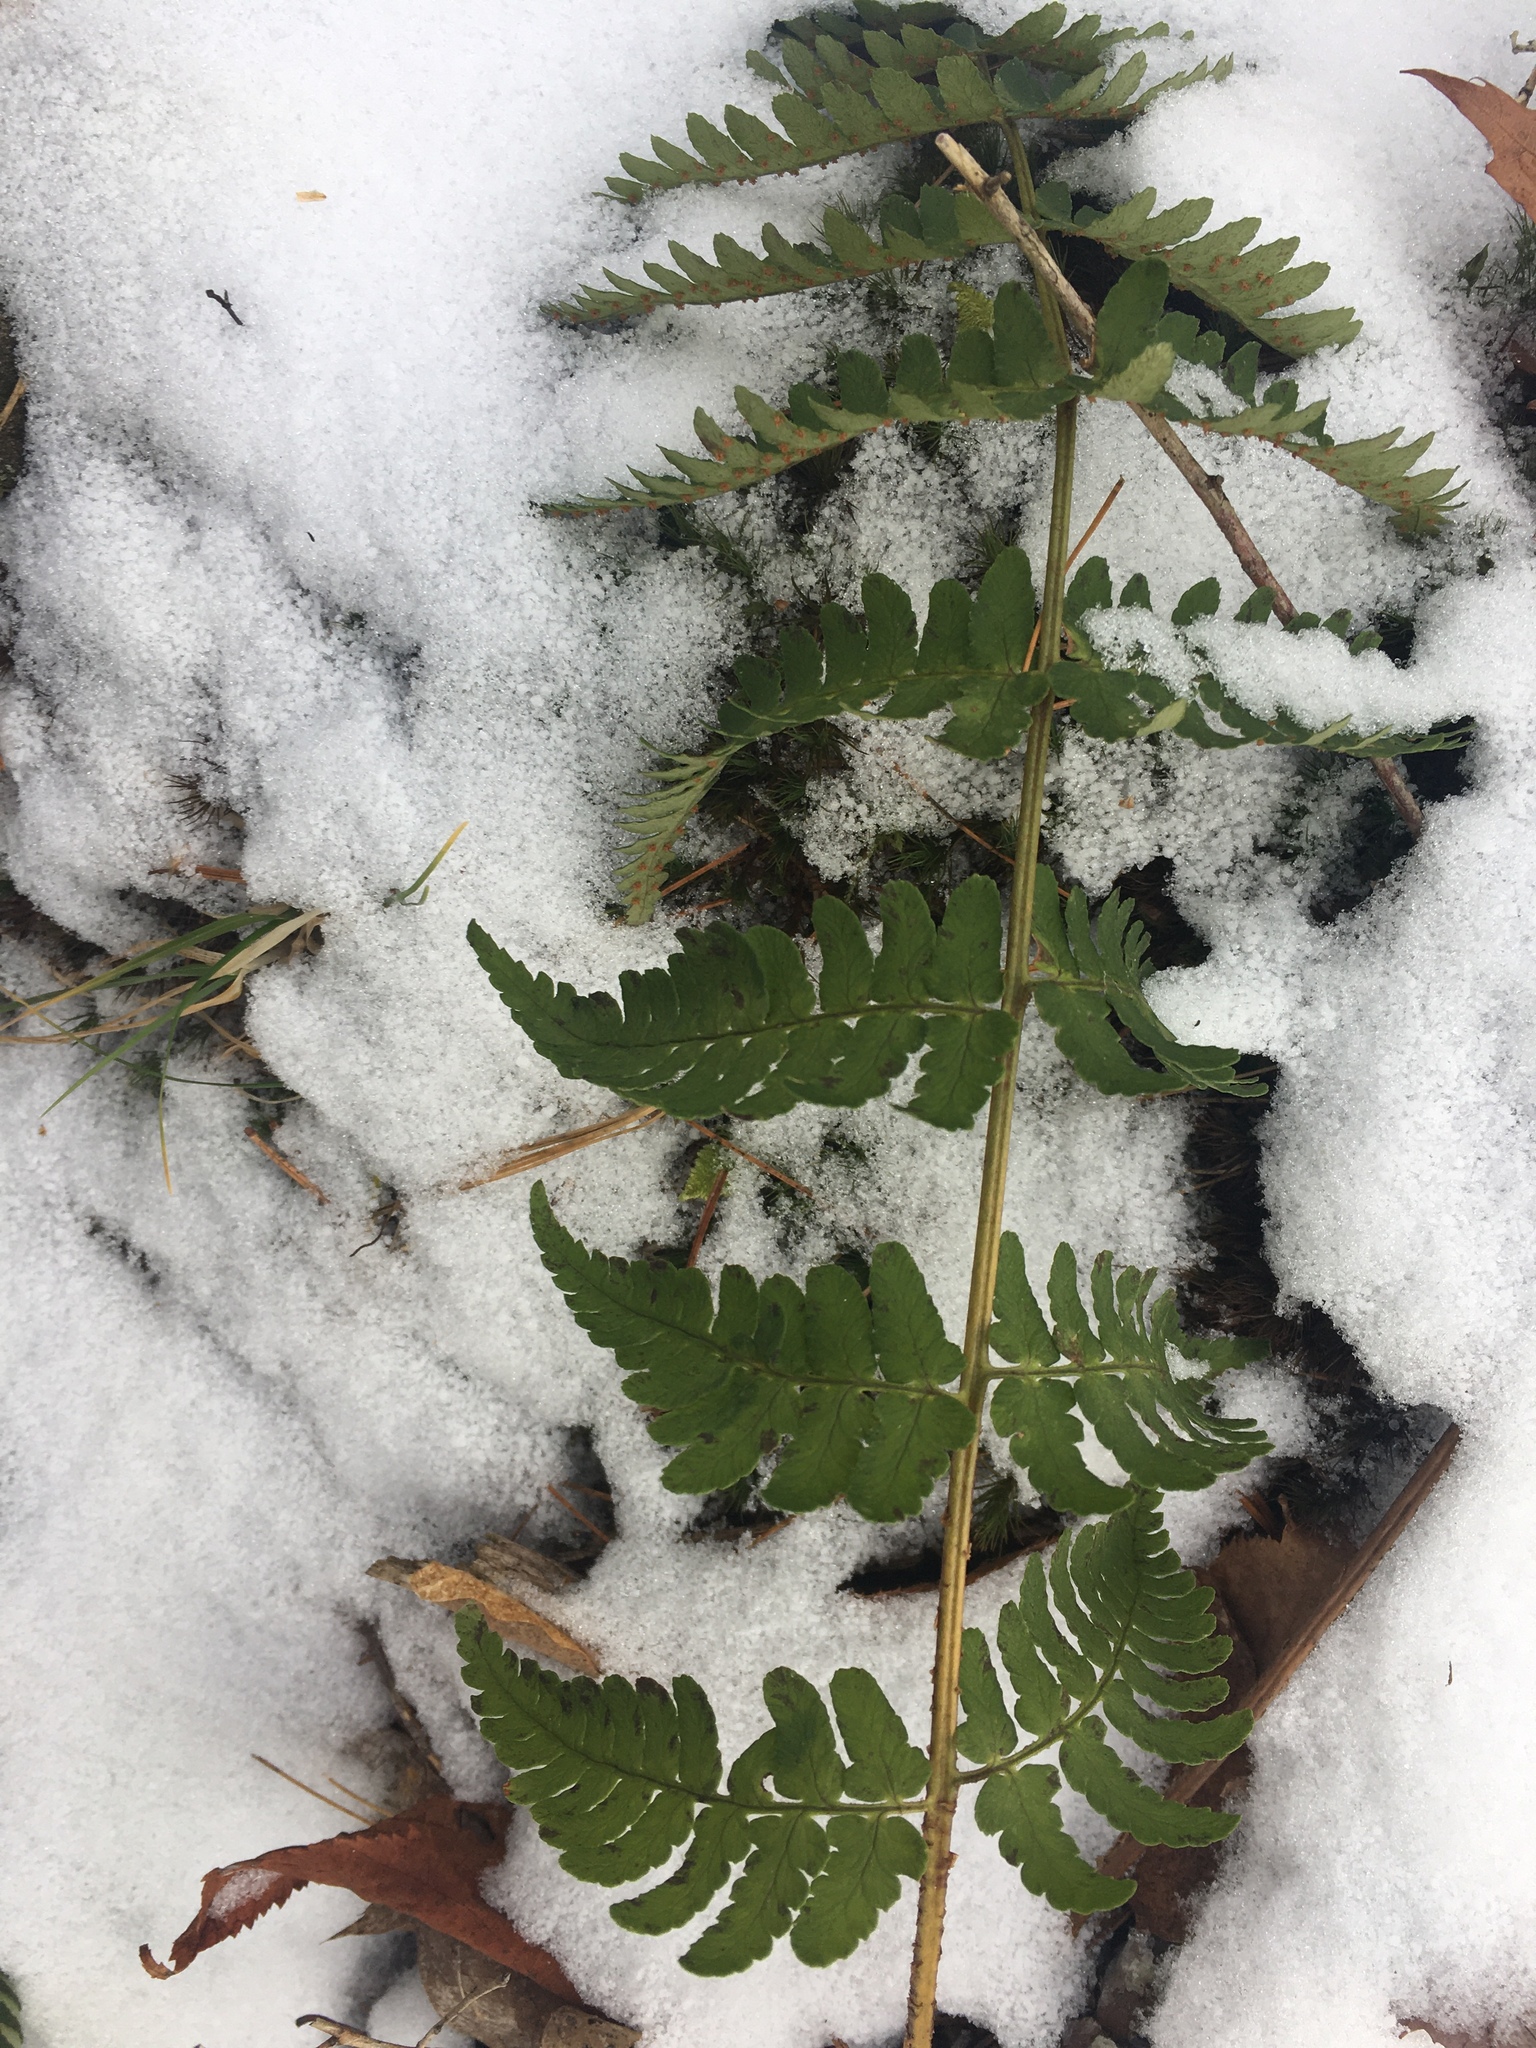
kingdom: Plantae
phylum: Tracheophyta
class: Polypodiopsida
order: Polypodiales
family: Dryopteridaceae
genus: Dryopteris
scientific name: Dryopteris marginalis
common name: Marginal wood fern
